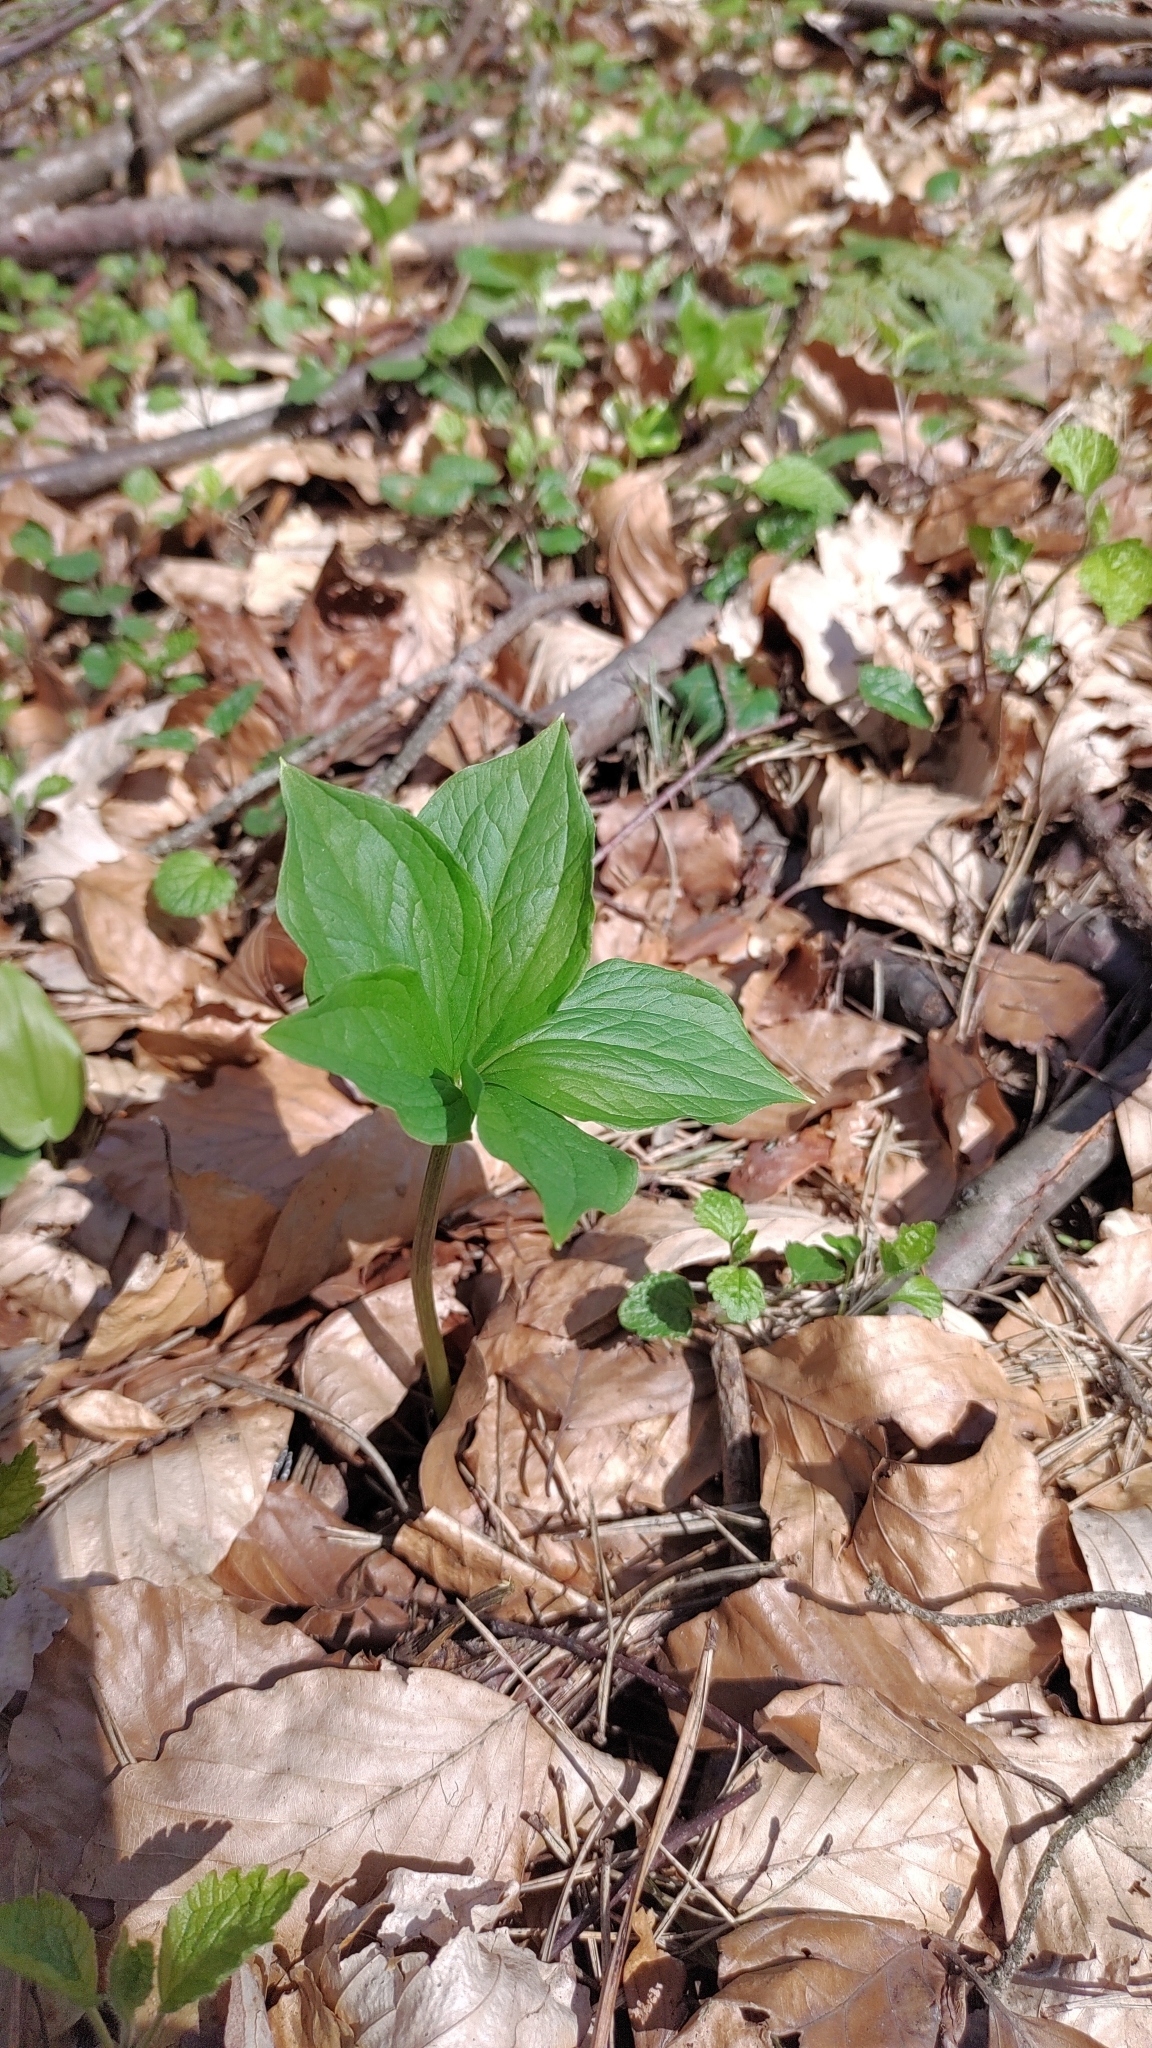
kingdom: Plantae
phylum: Tracheophyta
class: Liliopsida
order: Liliales
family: Melanthiaceae
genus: Paris
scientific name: Paris quadrifolia
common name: Herb-paris
